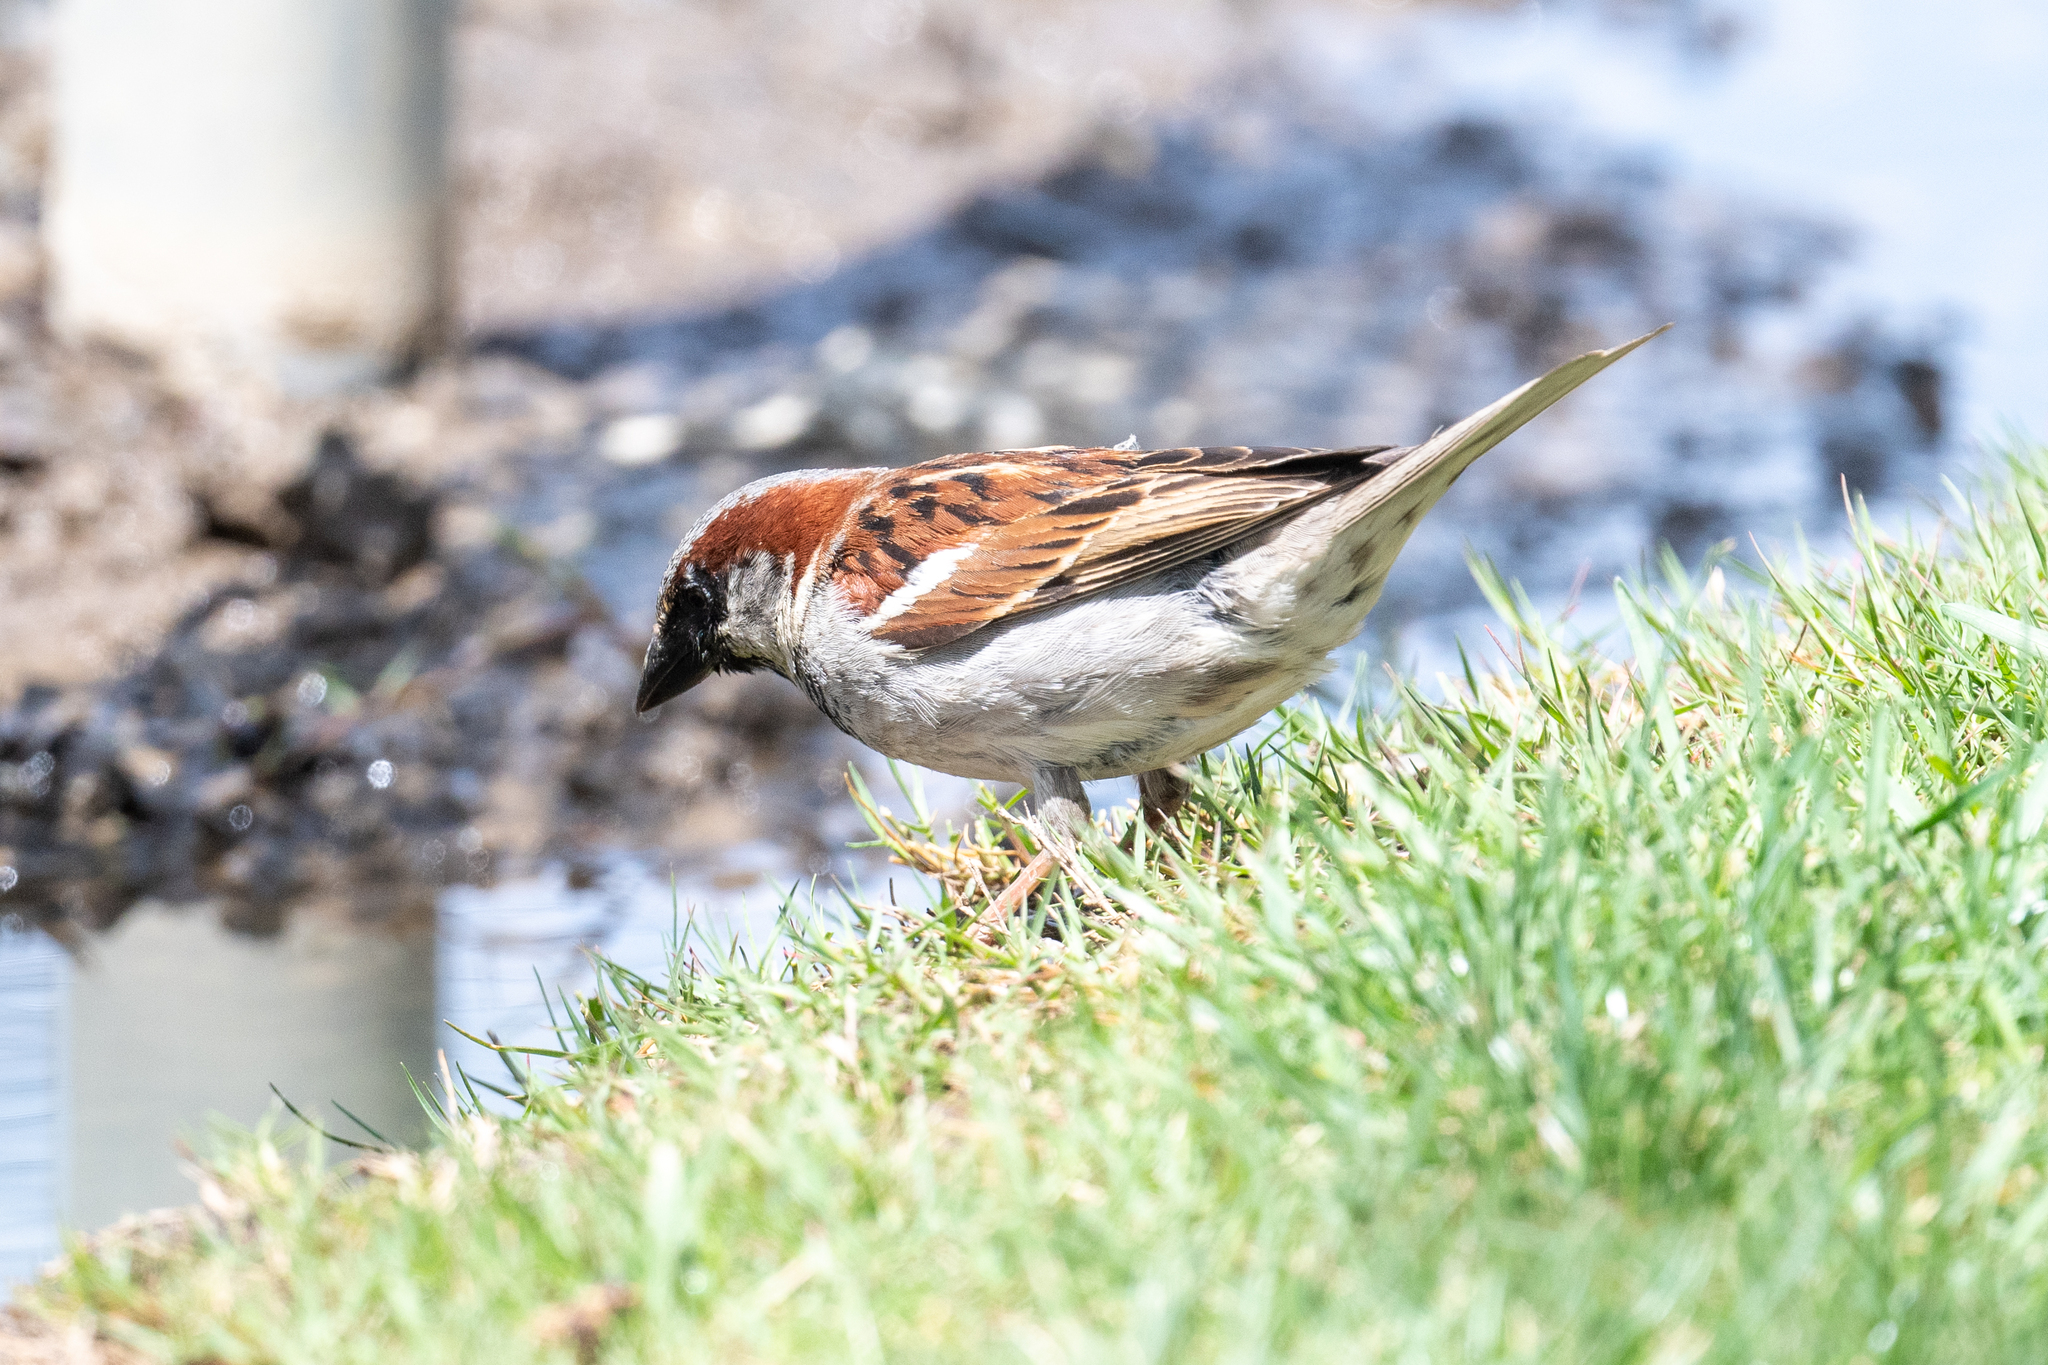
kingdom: Animalia
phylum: Chordata
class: Aves
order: Passeriformes
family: Passeridae
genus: Passer
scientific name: Passer domesticus
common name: House sparrow
